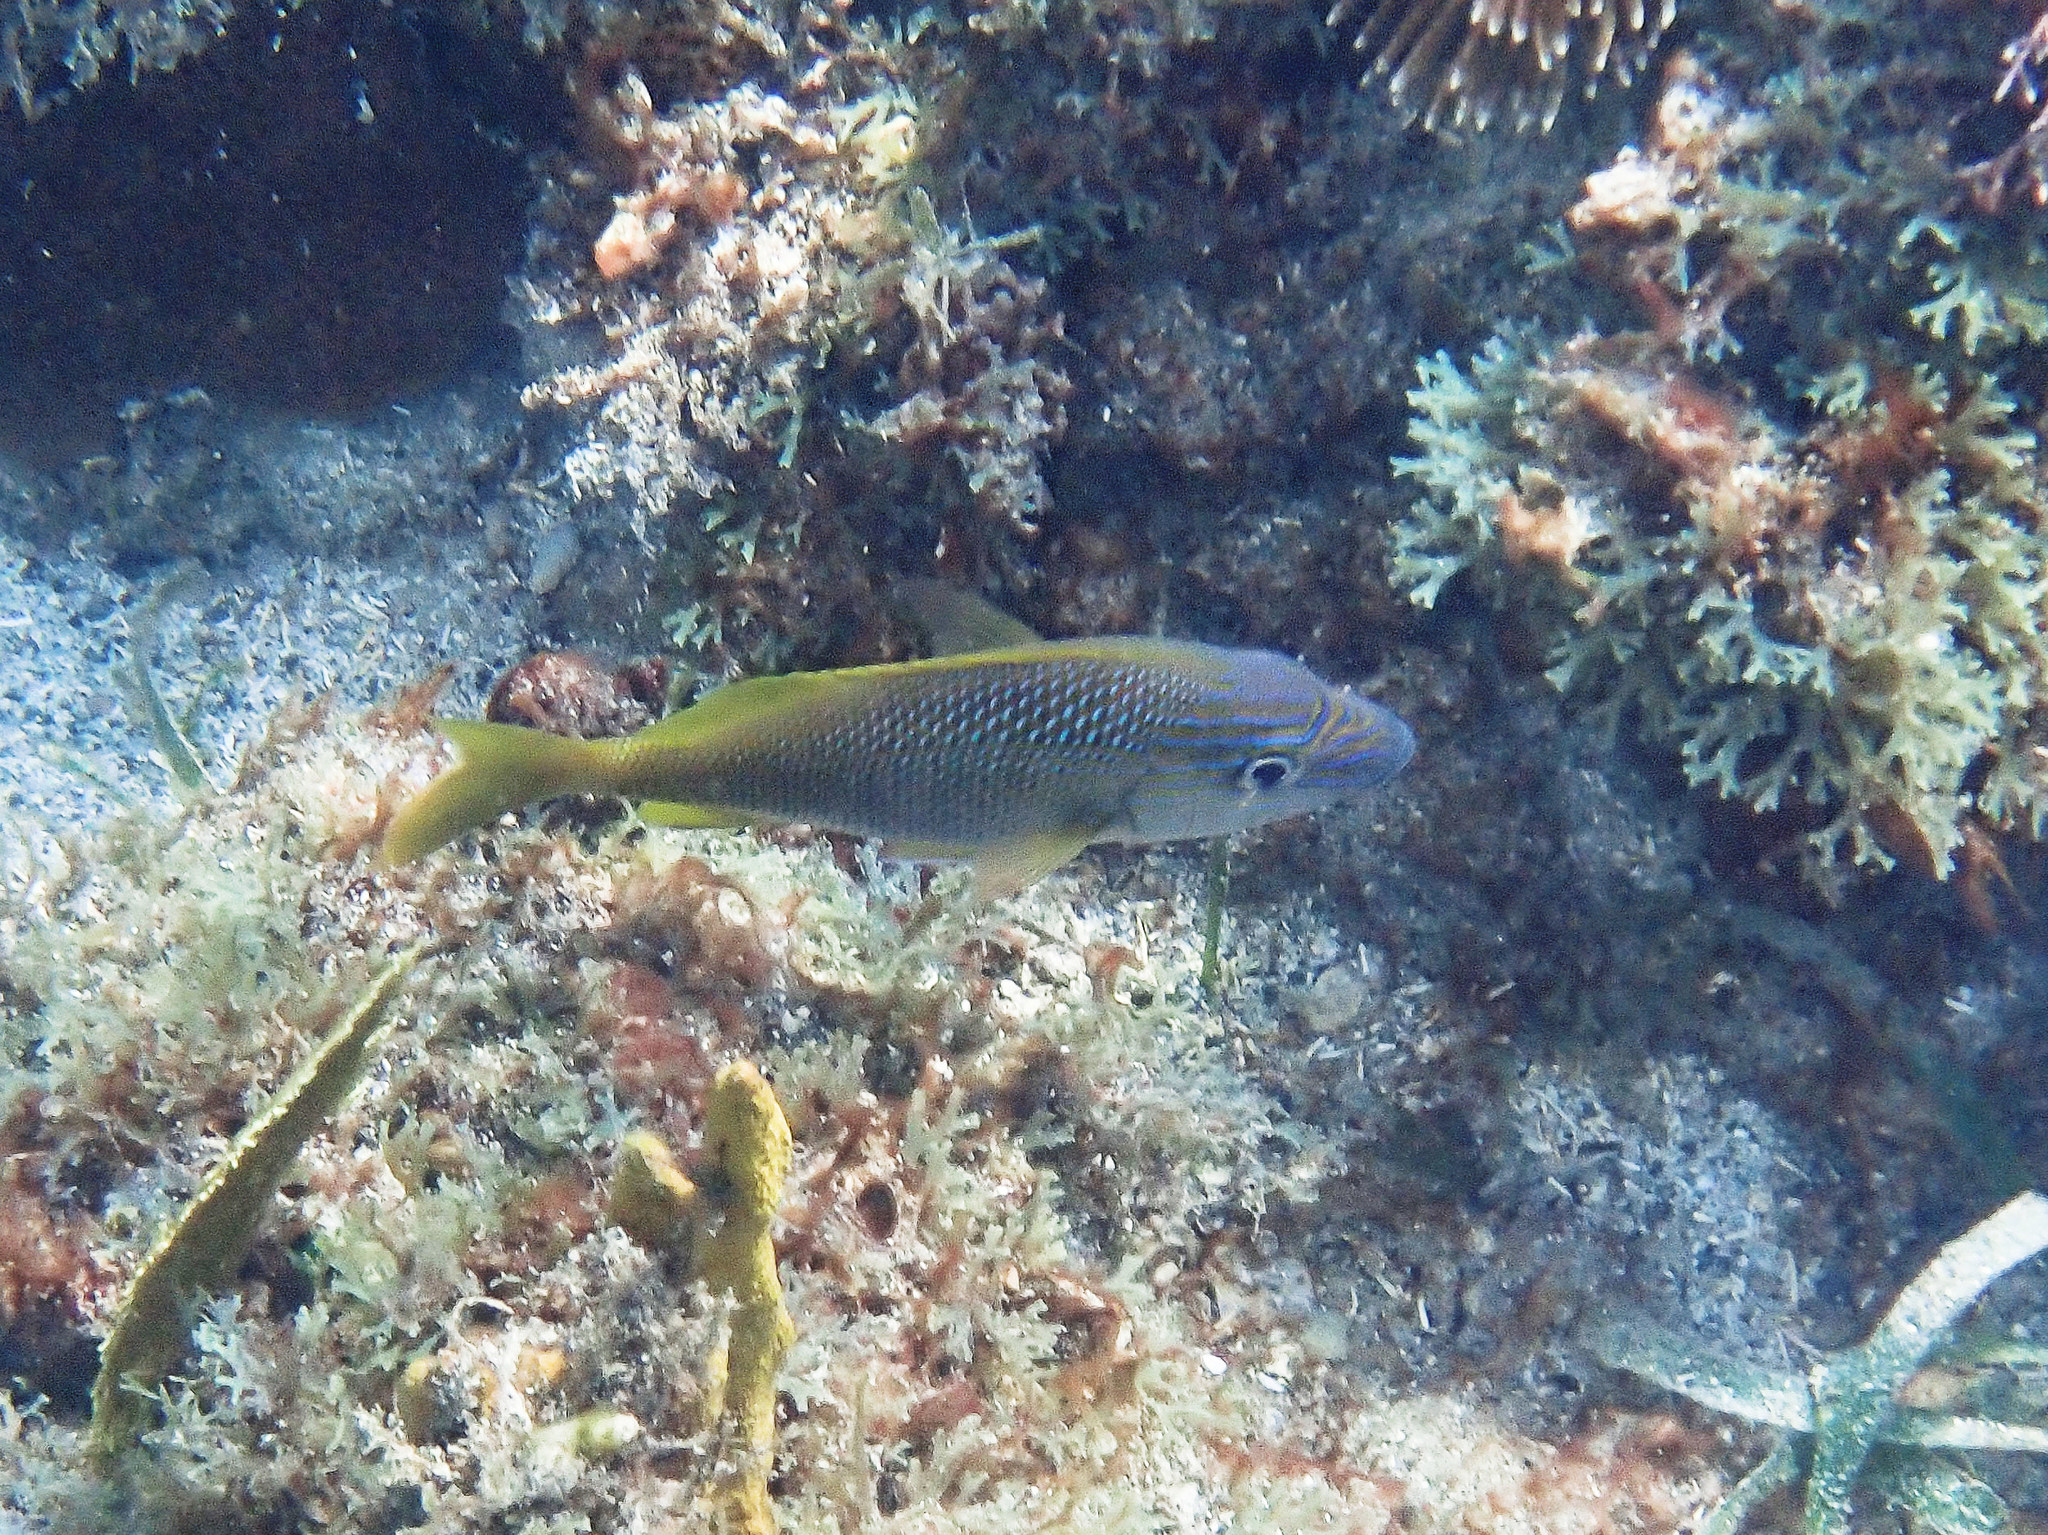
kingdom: Animalia
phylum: Chordata
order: Perciformes
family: Haemulidae
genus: Haemulon
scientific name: Haemulon plumierii
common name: White grunt
